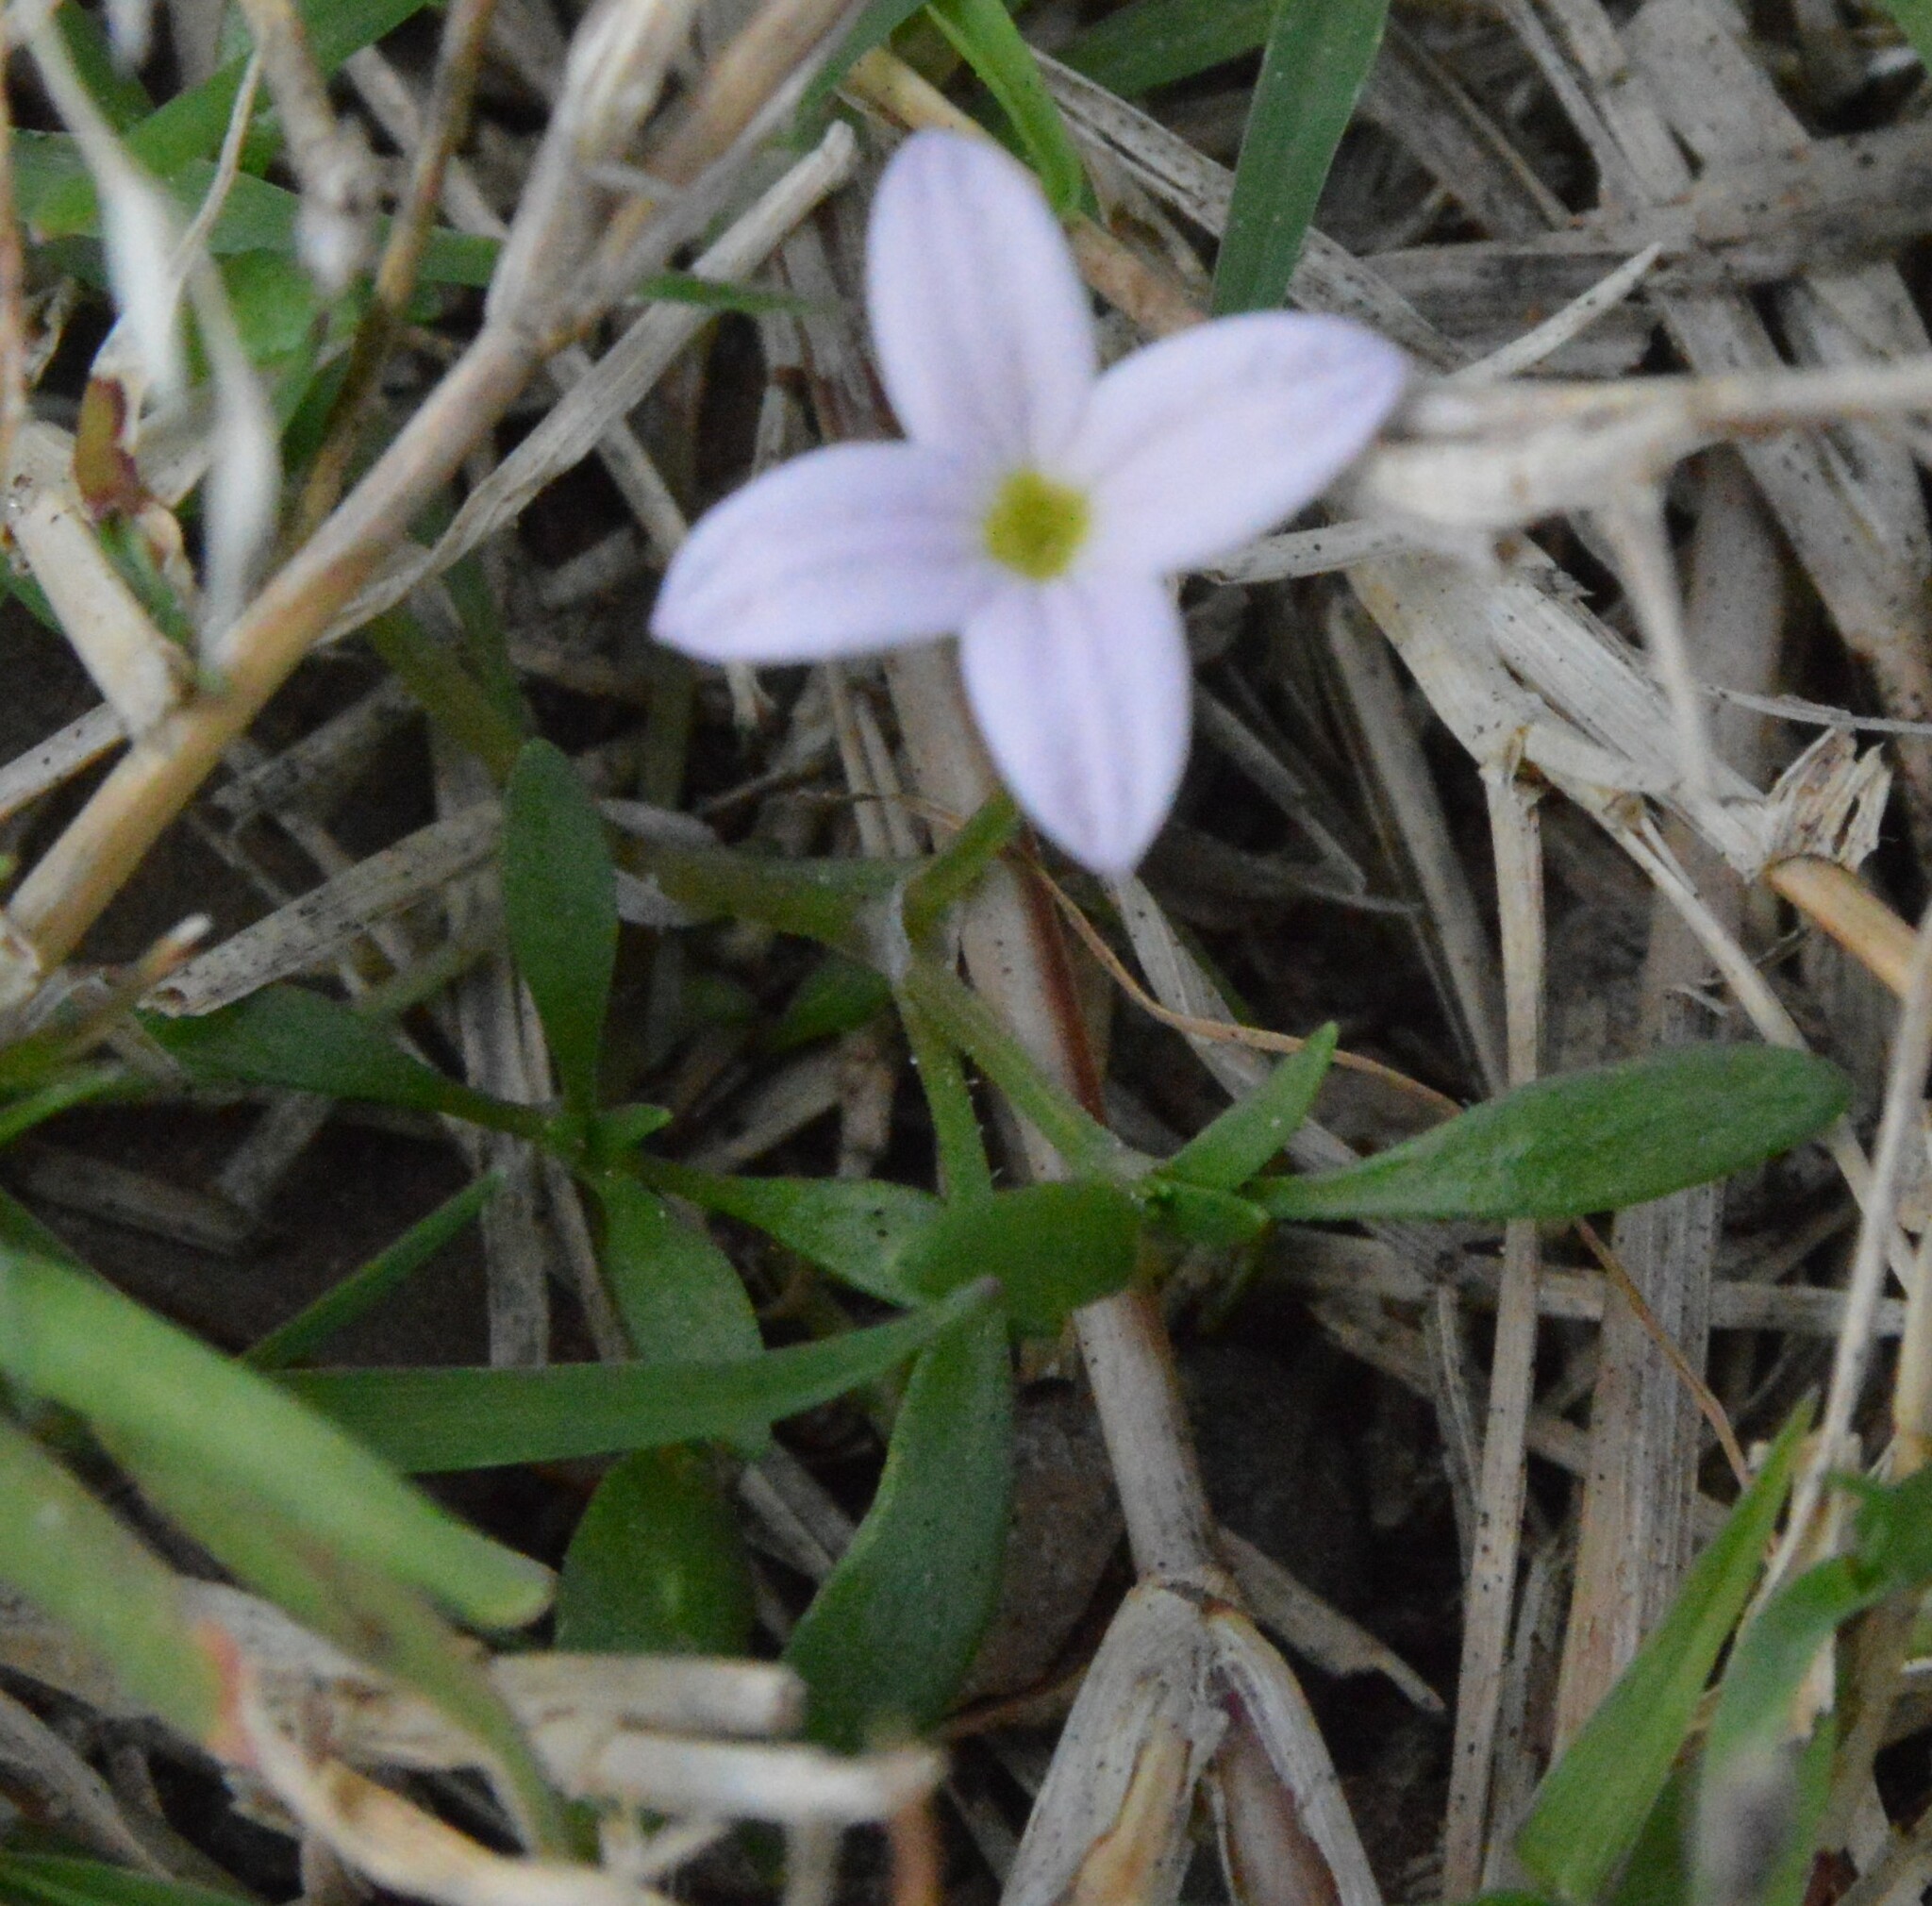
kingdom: Plantae
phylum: Tracheophyta
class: Magnoliopsida
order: Gentianales
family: Rubiaceae
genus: Houstonia
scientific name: Houstonia rosea
